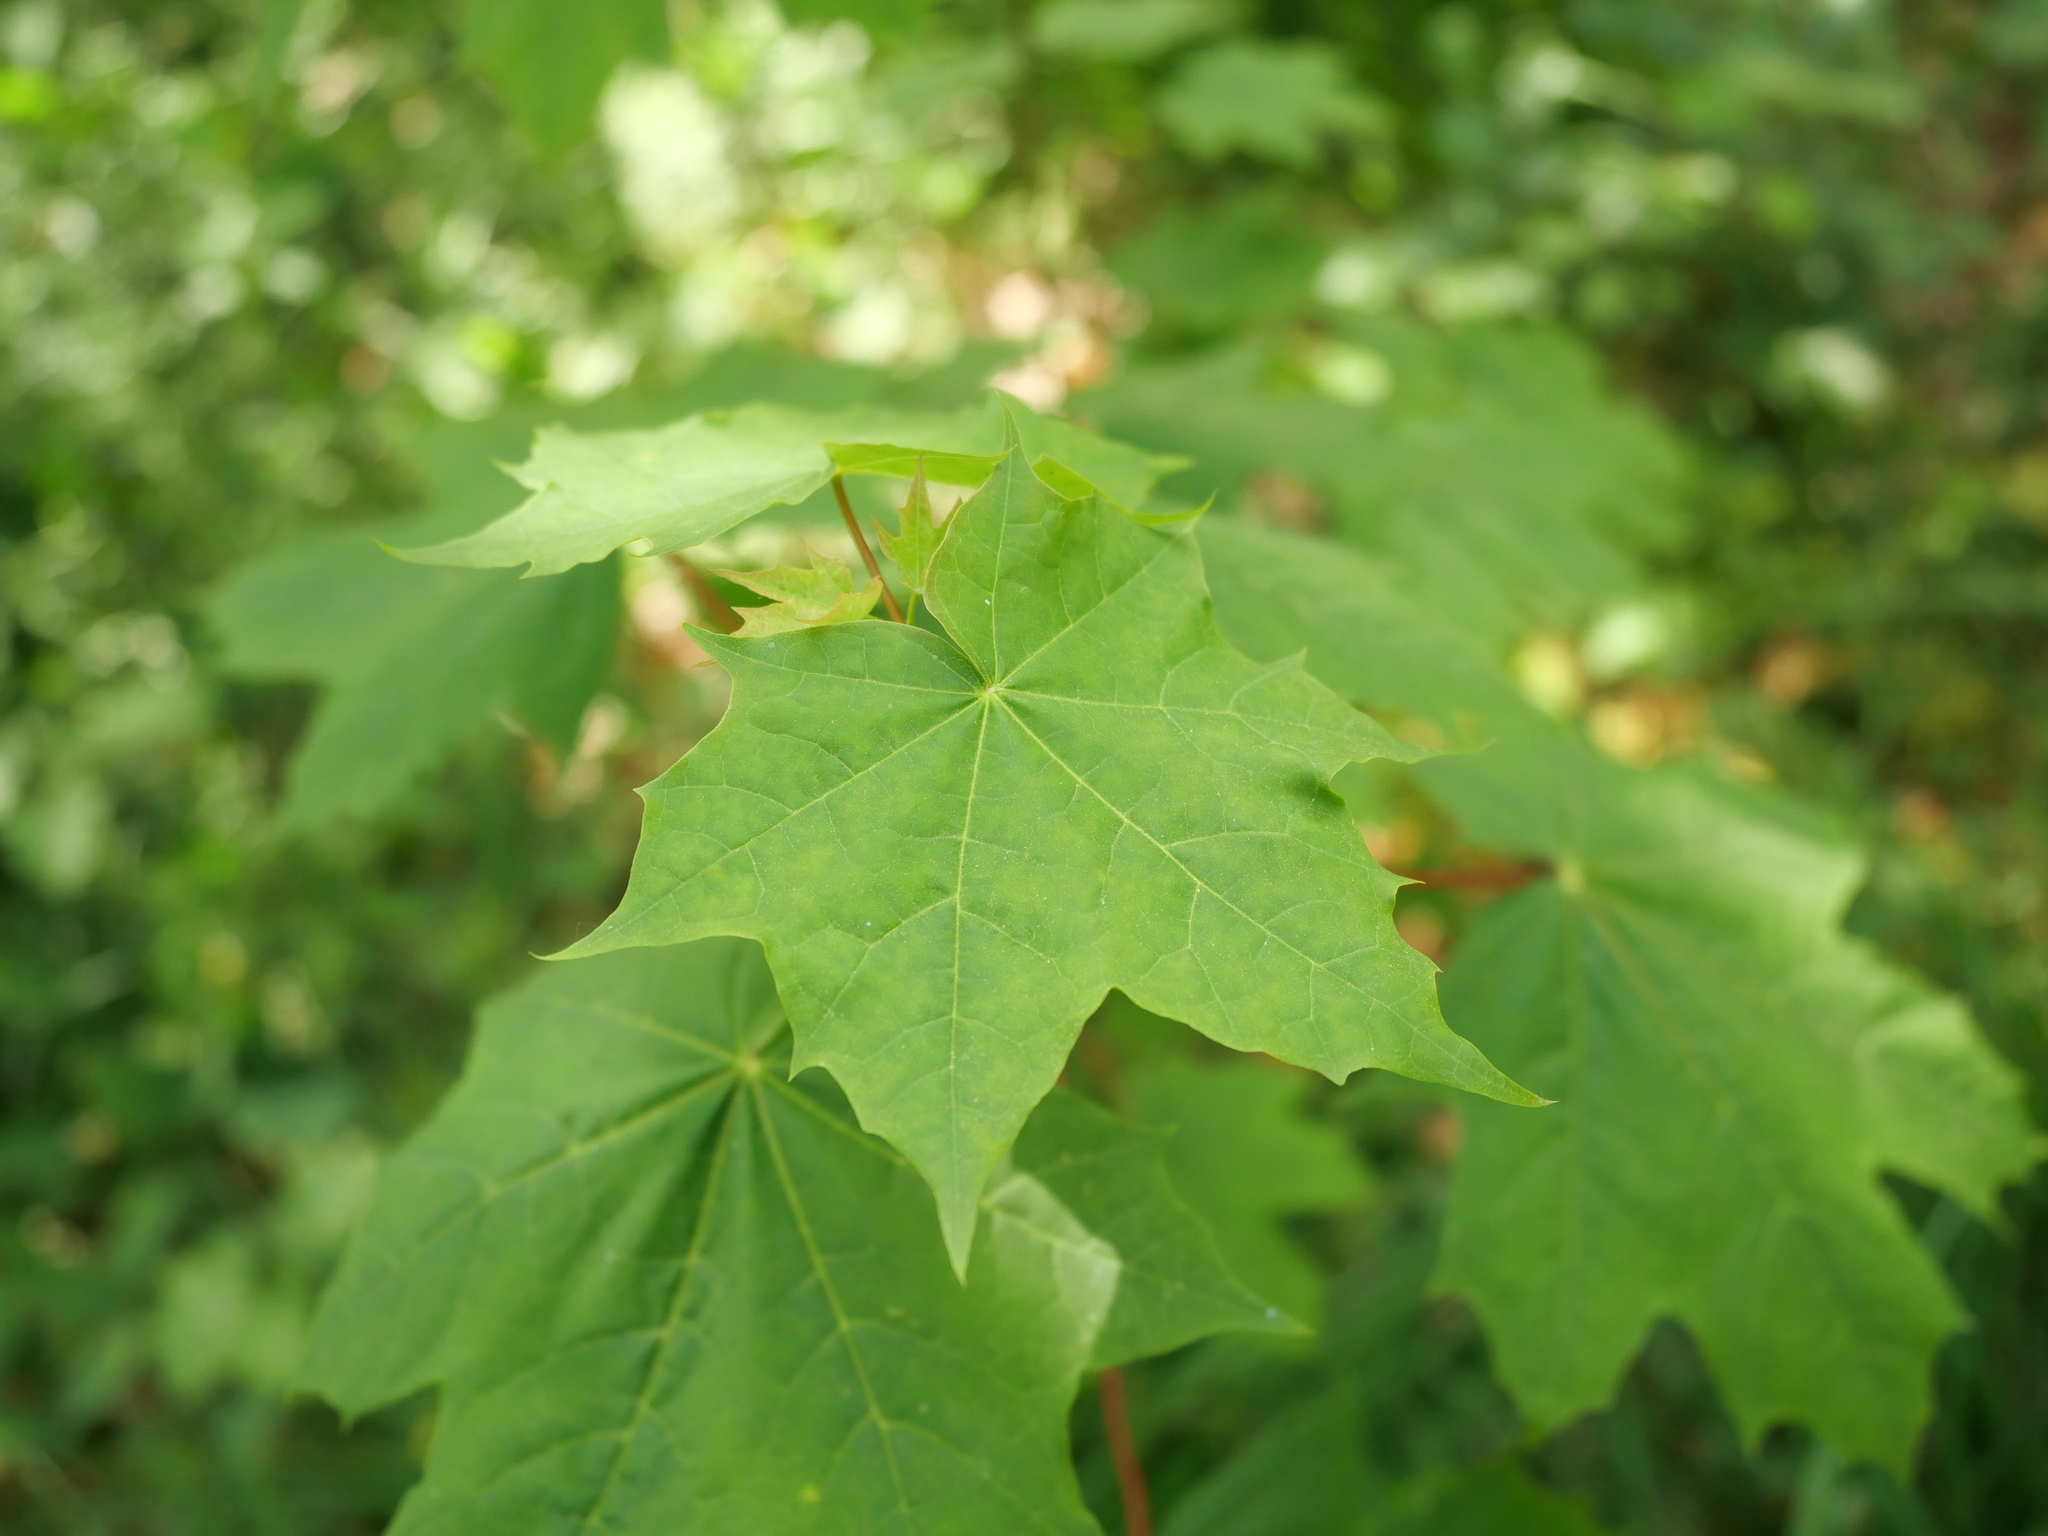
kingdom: Plantae
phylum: Tracheophyta
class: Magnoliopsida
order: Sapindales
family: Sapindaceae
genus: Acer
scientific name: Acer platanoides
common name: Norway maple
